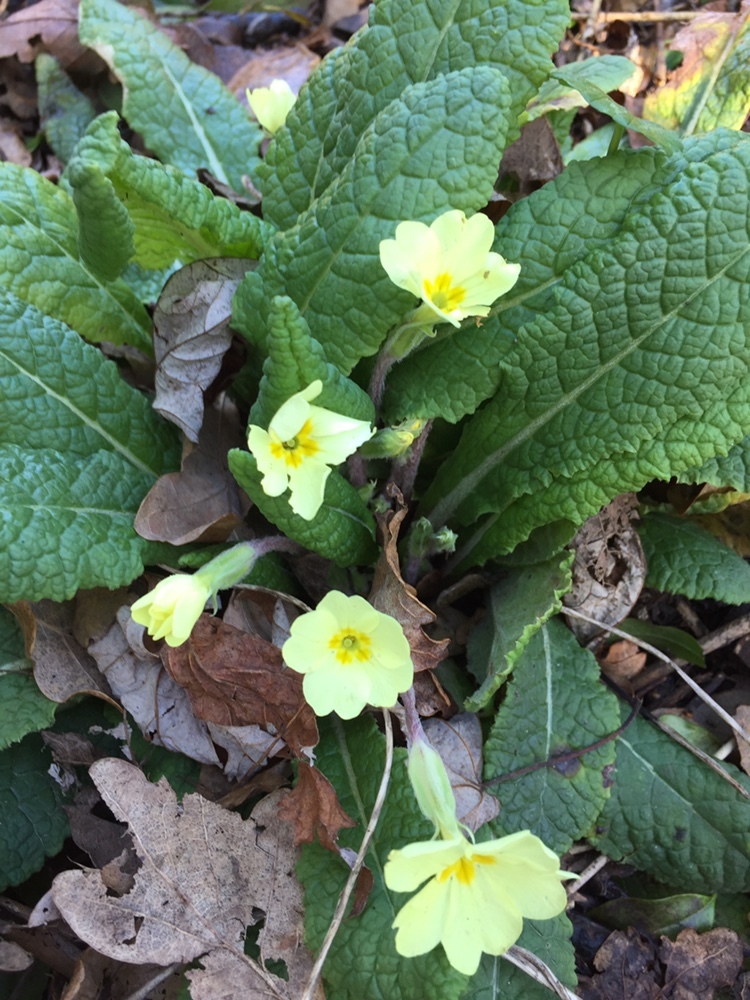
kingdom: Plantae
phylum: Tracheophyta
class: Magnoliopsida
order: Ericales
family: Primulaceae
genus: Primula
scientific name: Primula vulgaris
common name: Primrose
